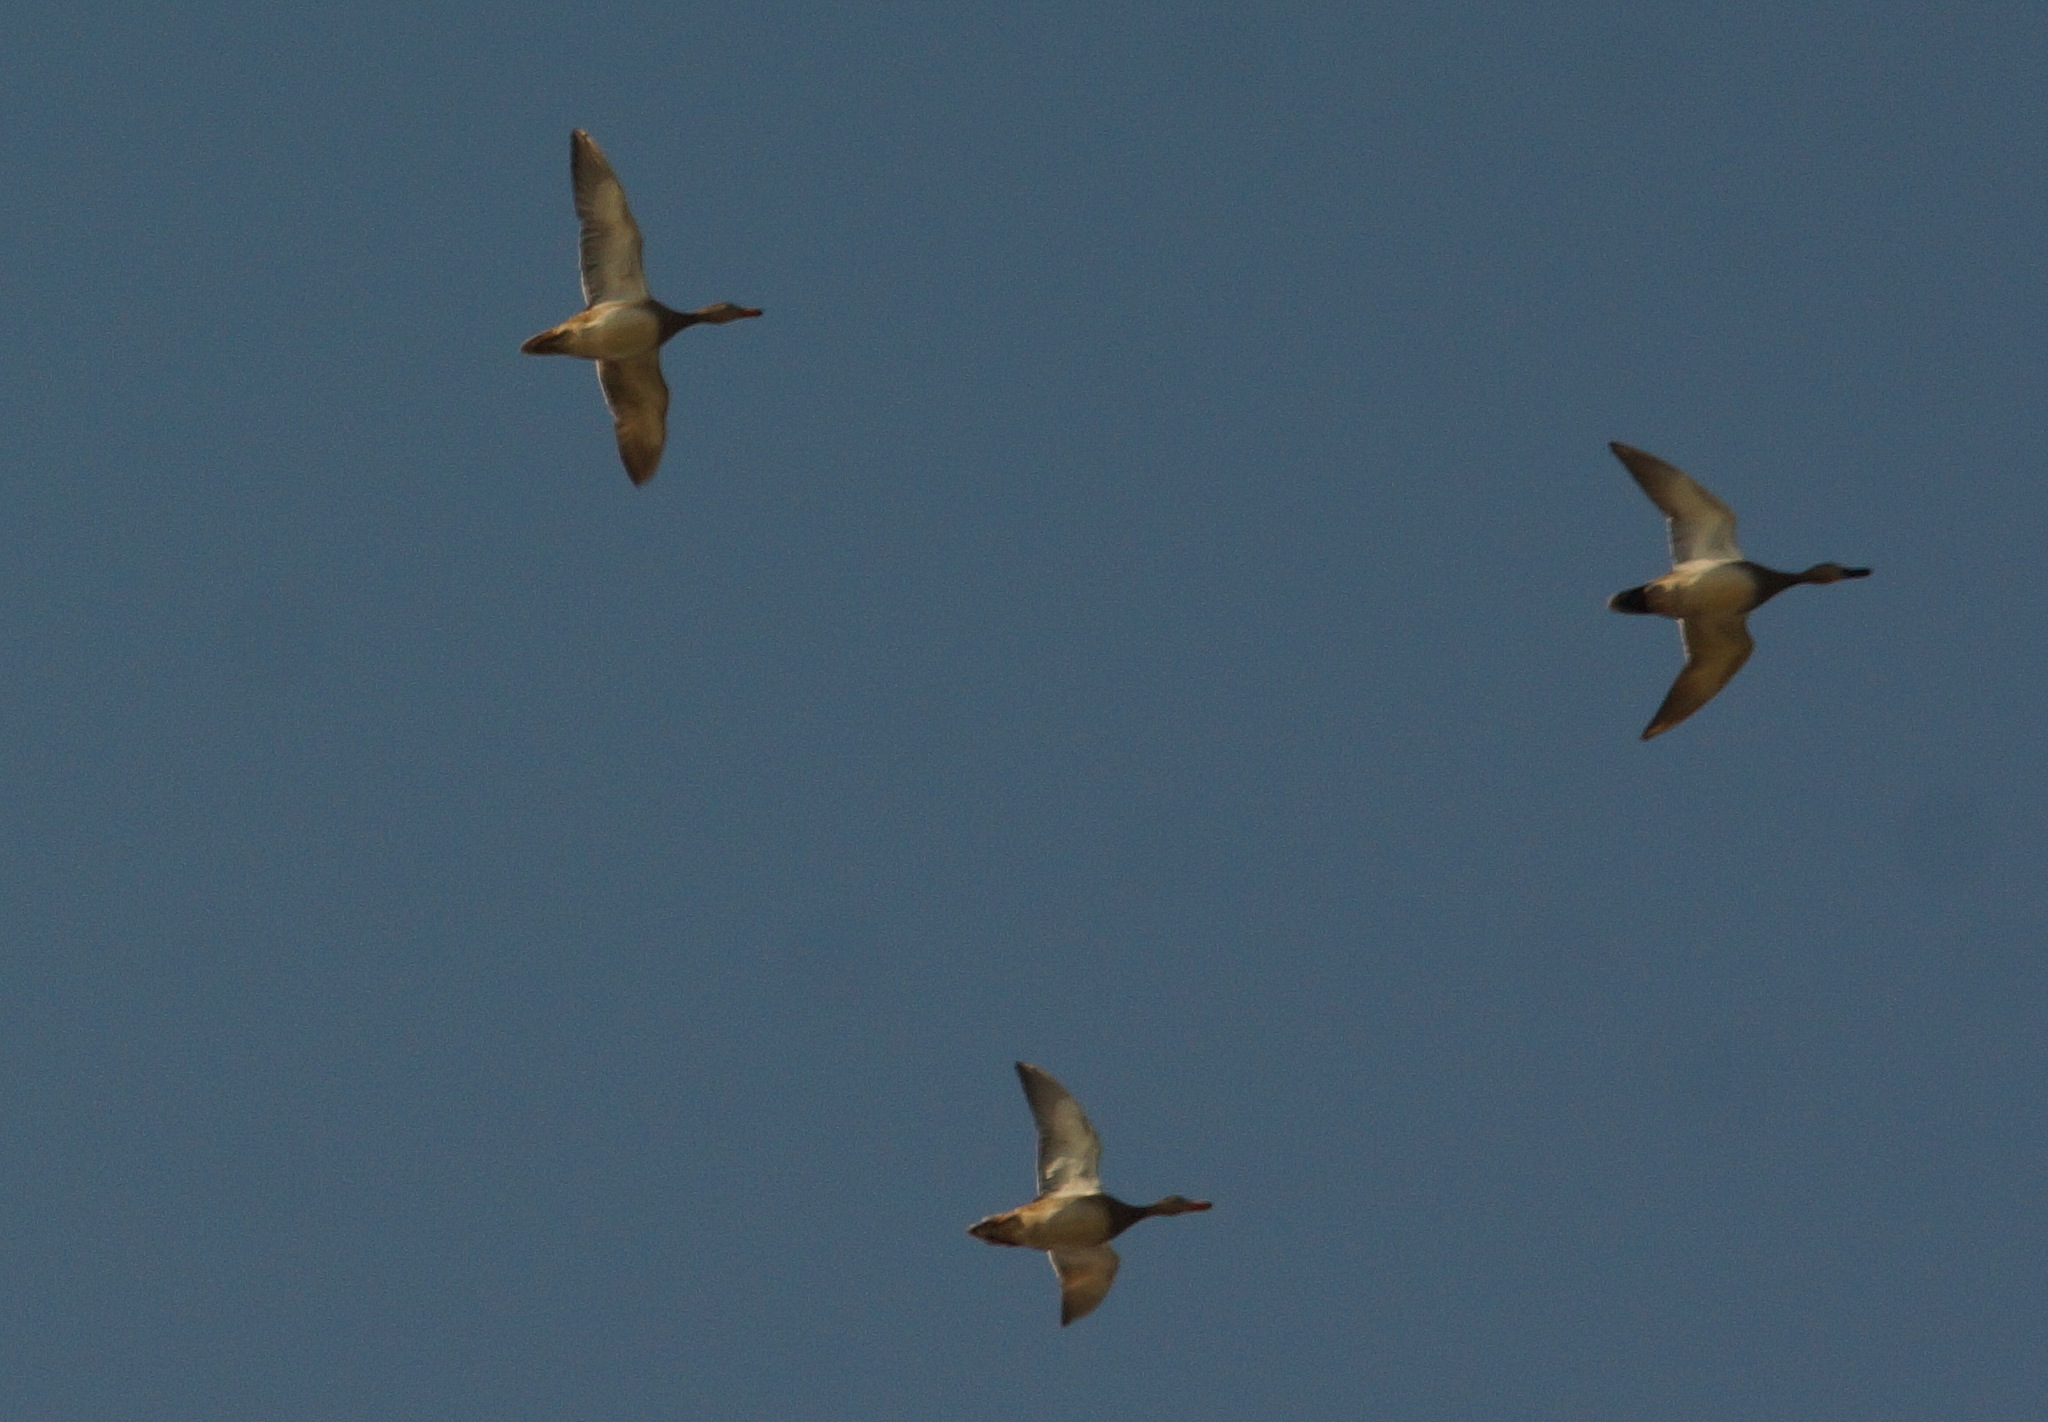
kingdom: Animalia
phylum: Chordata
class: Aves
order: Anseriformes
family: Anatidae
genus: Netta
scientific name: Netta rufina
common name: Red-crested pochard
